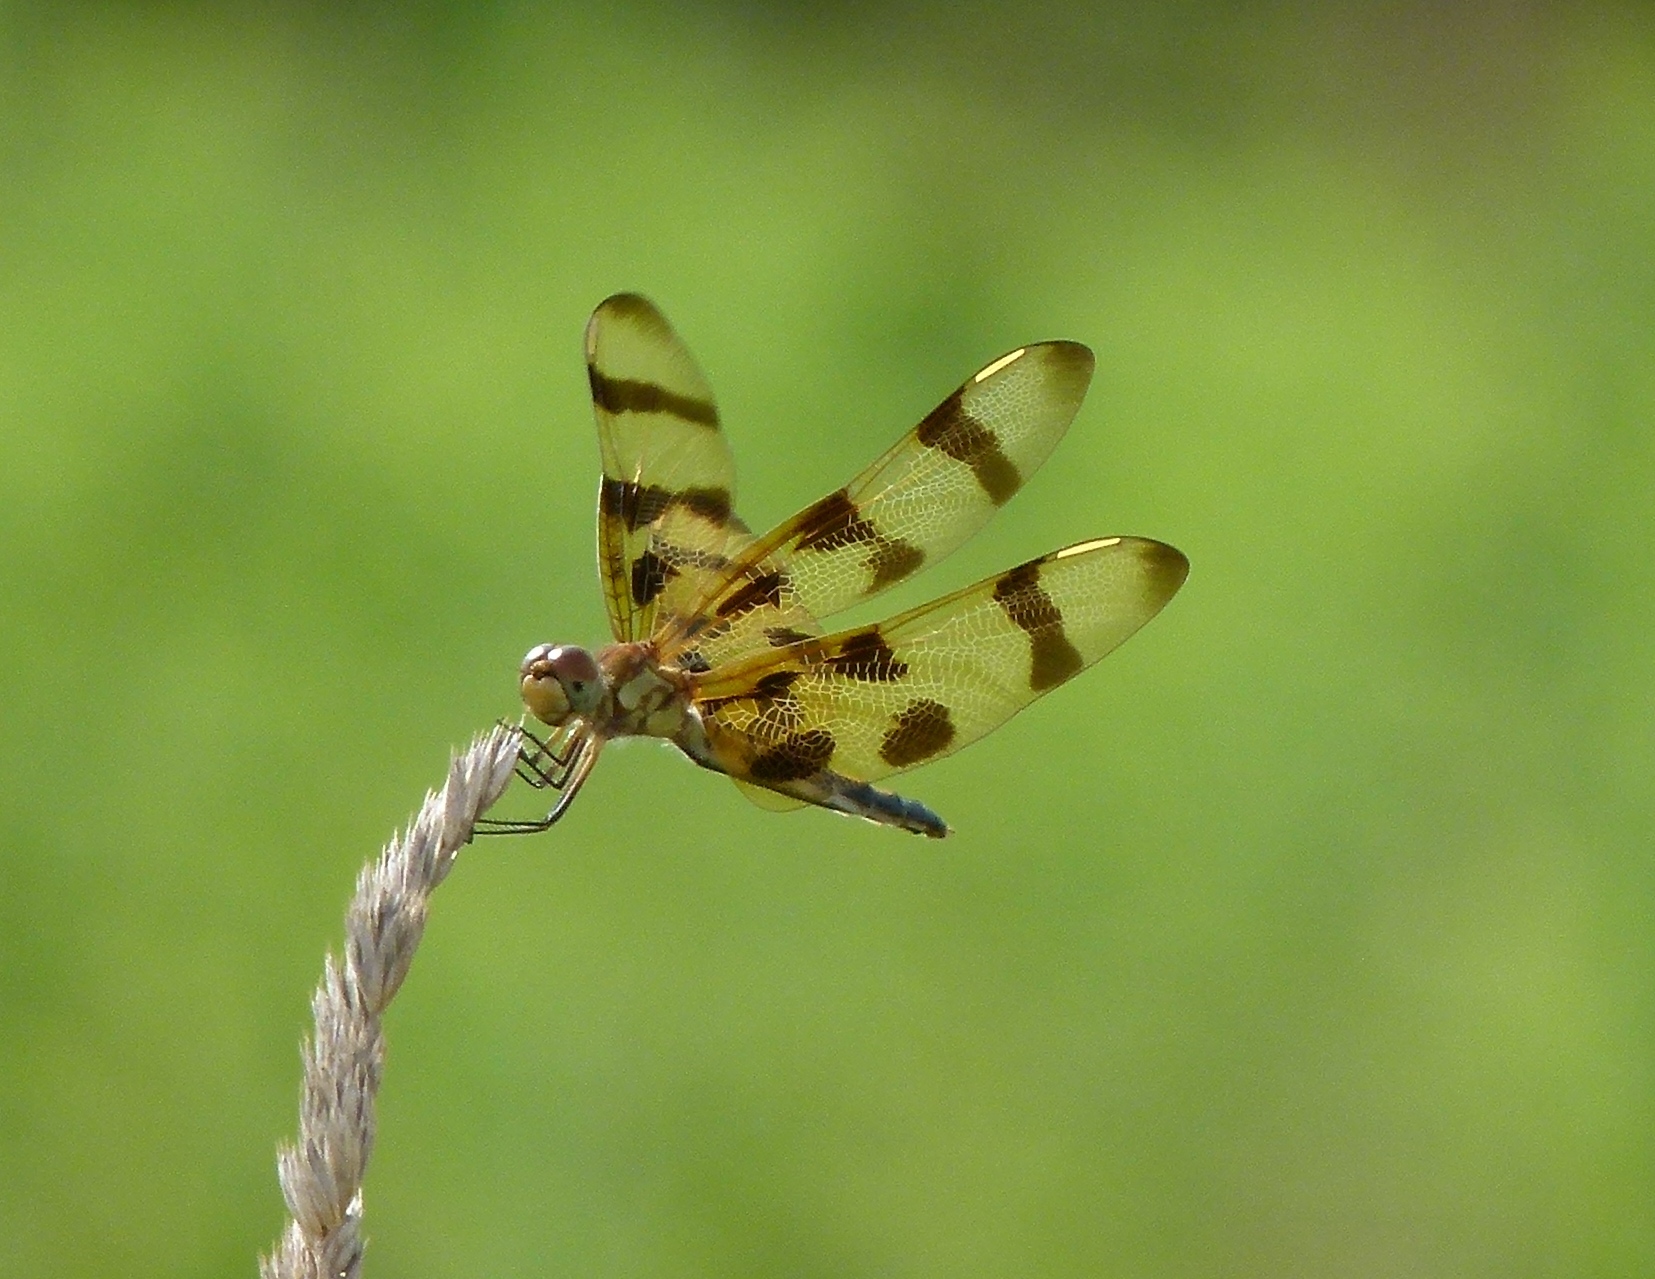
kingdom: Animalia
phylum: Arthropoda
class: Insecta
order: Odonata
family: Libellulidae
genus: Celithemis
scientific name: Celithemis eponina
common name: Halloween pennant
